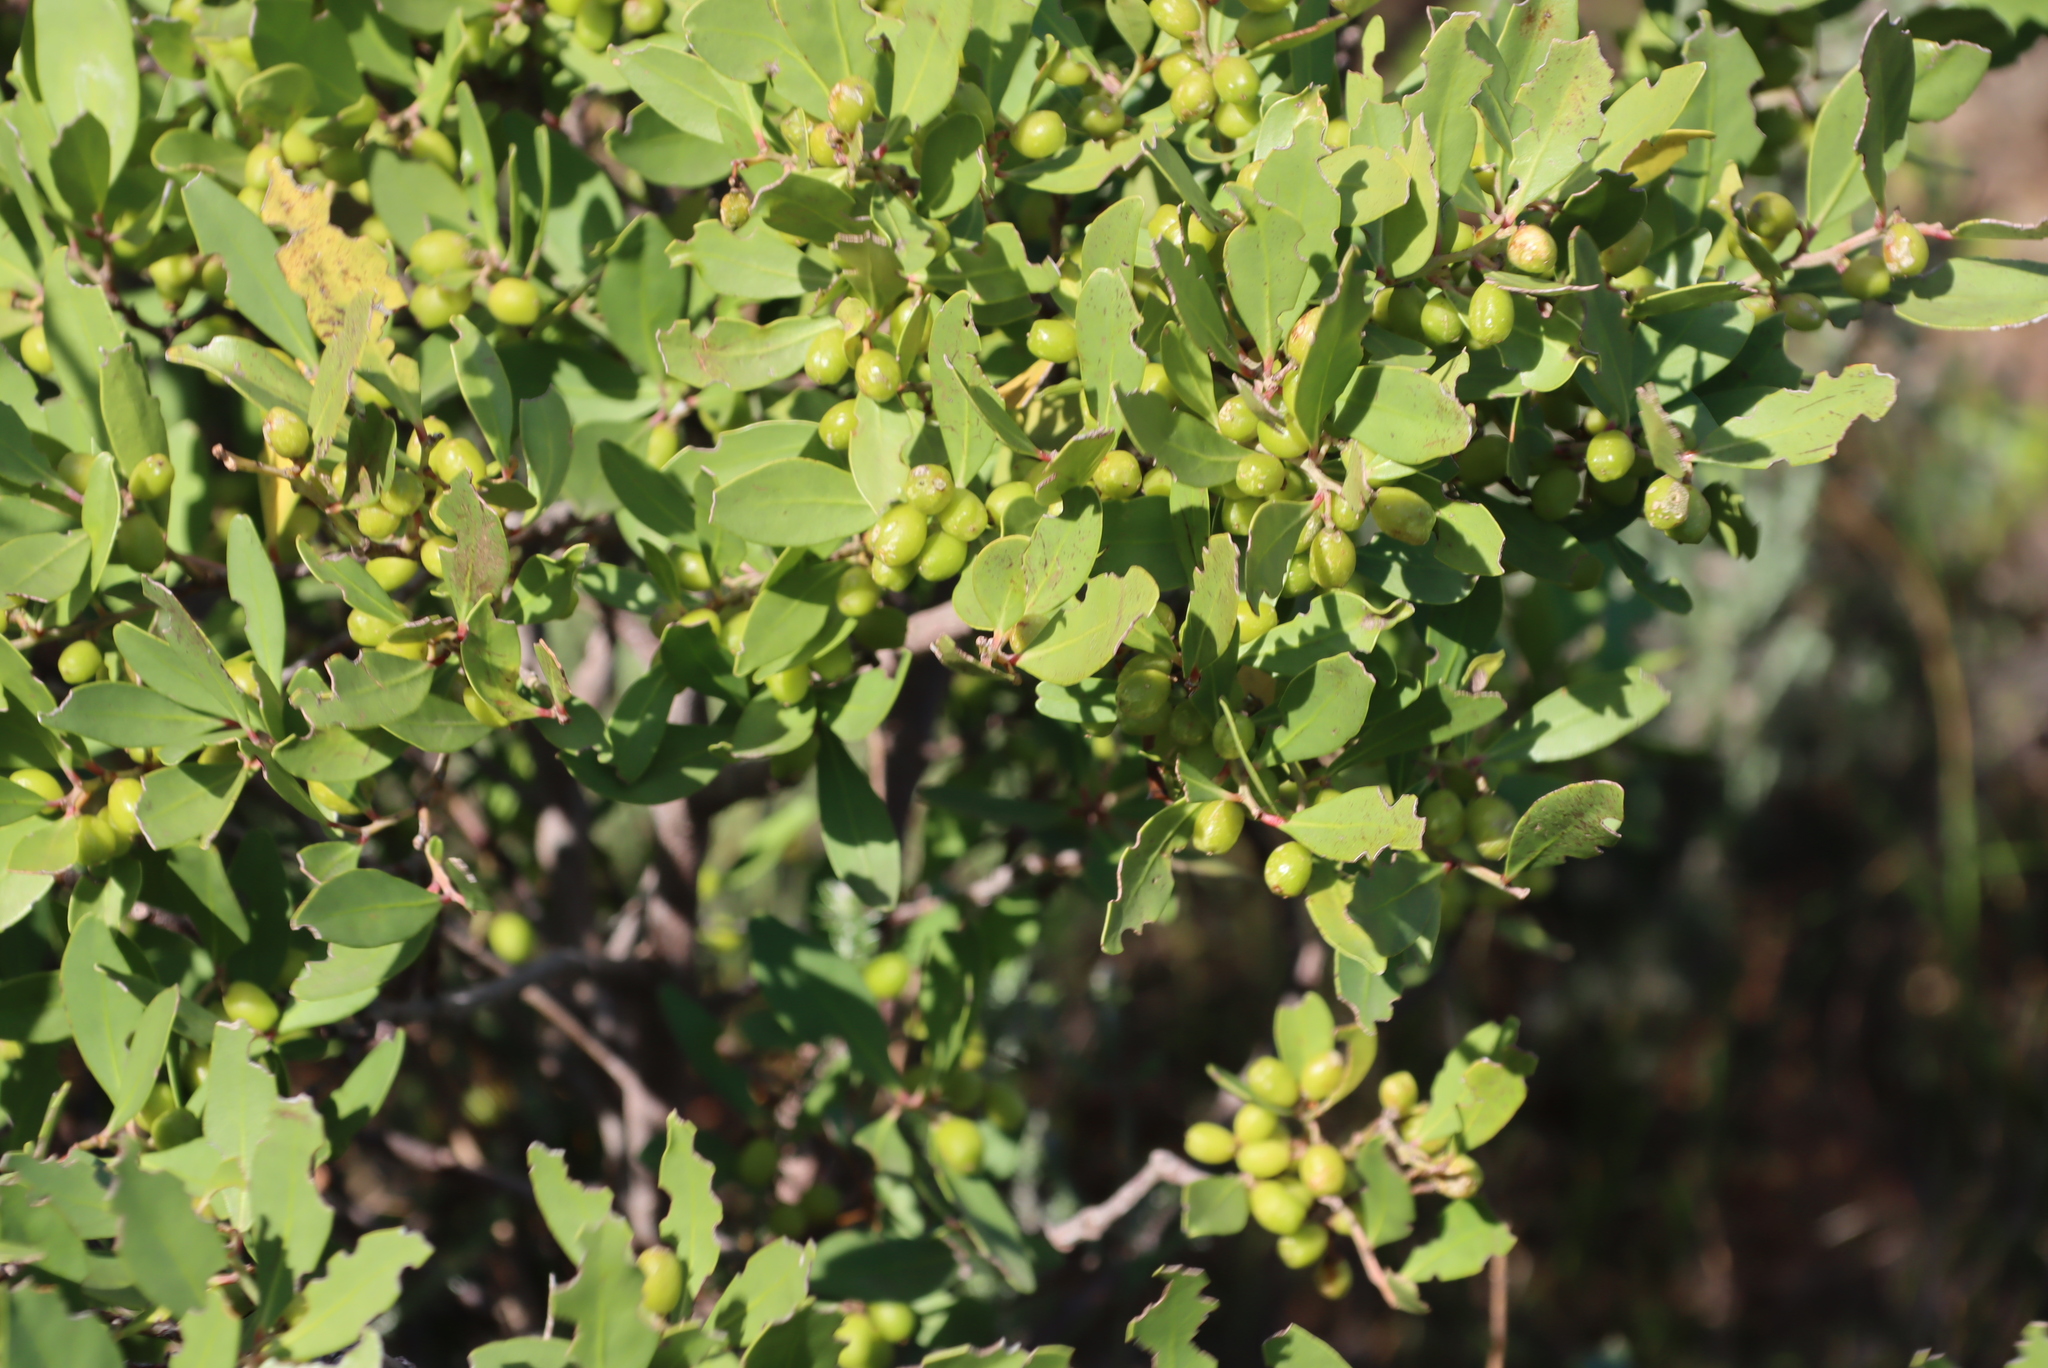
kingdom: Plantae
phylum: Tracheophyta
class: Magnoliopsida
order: Celastrales
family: Celastraceae
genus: Gymnosporia
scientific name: Gymnosporia laurina
